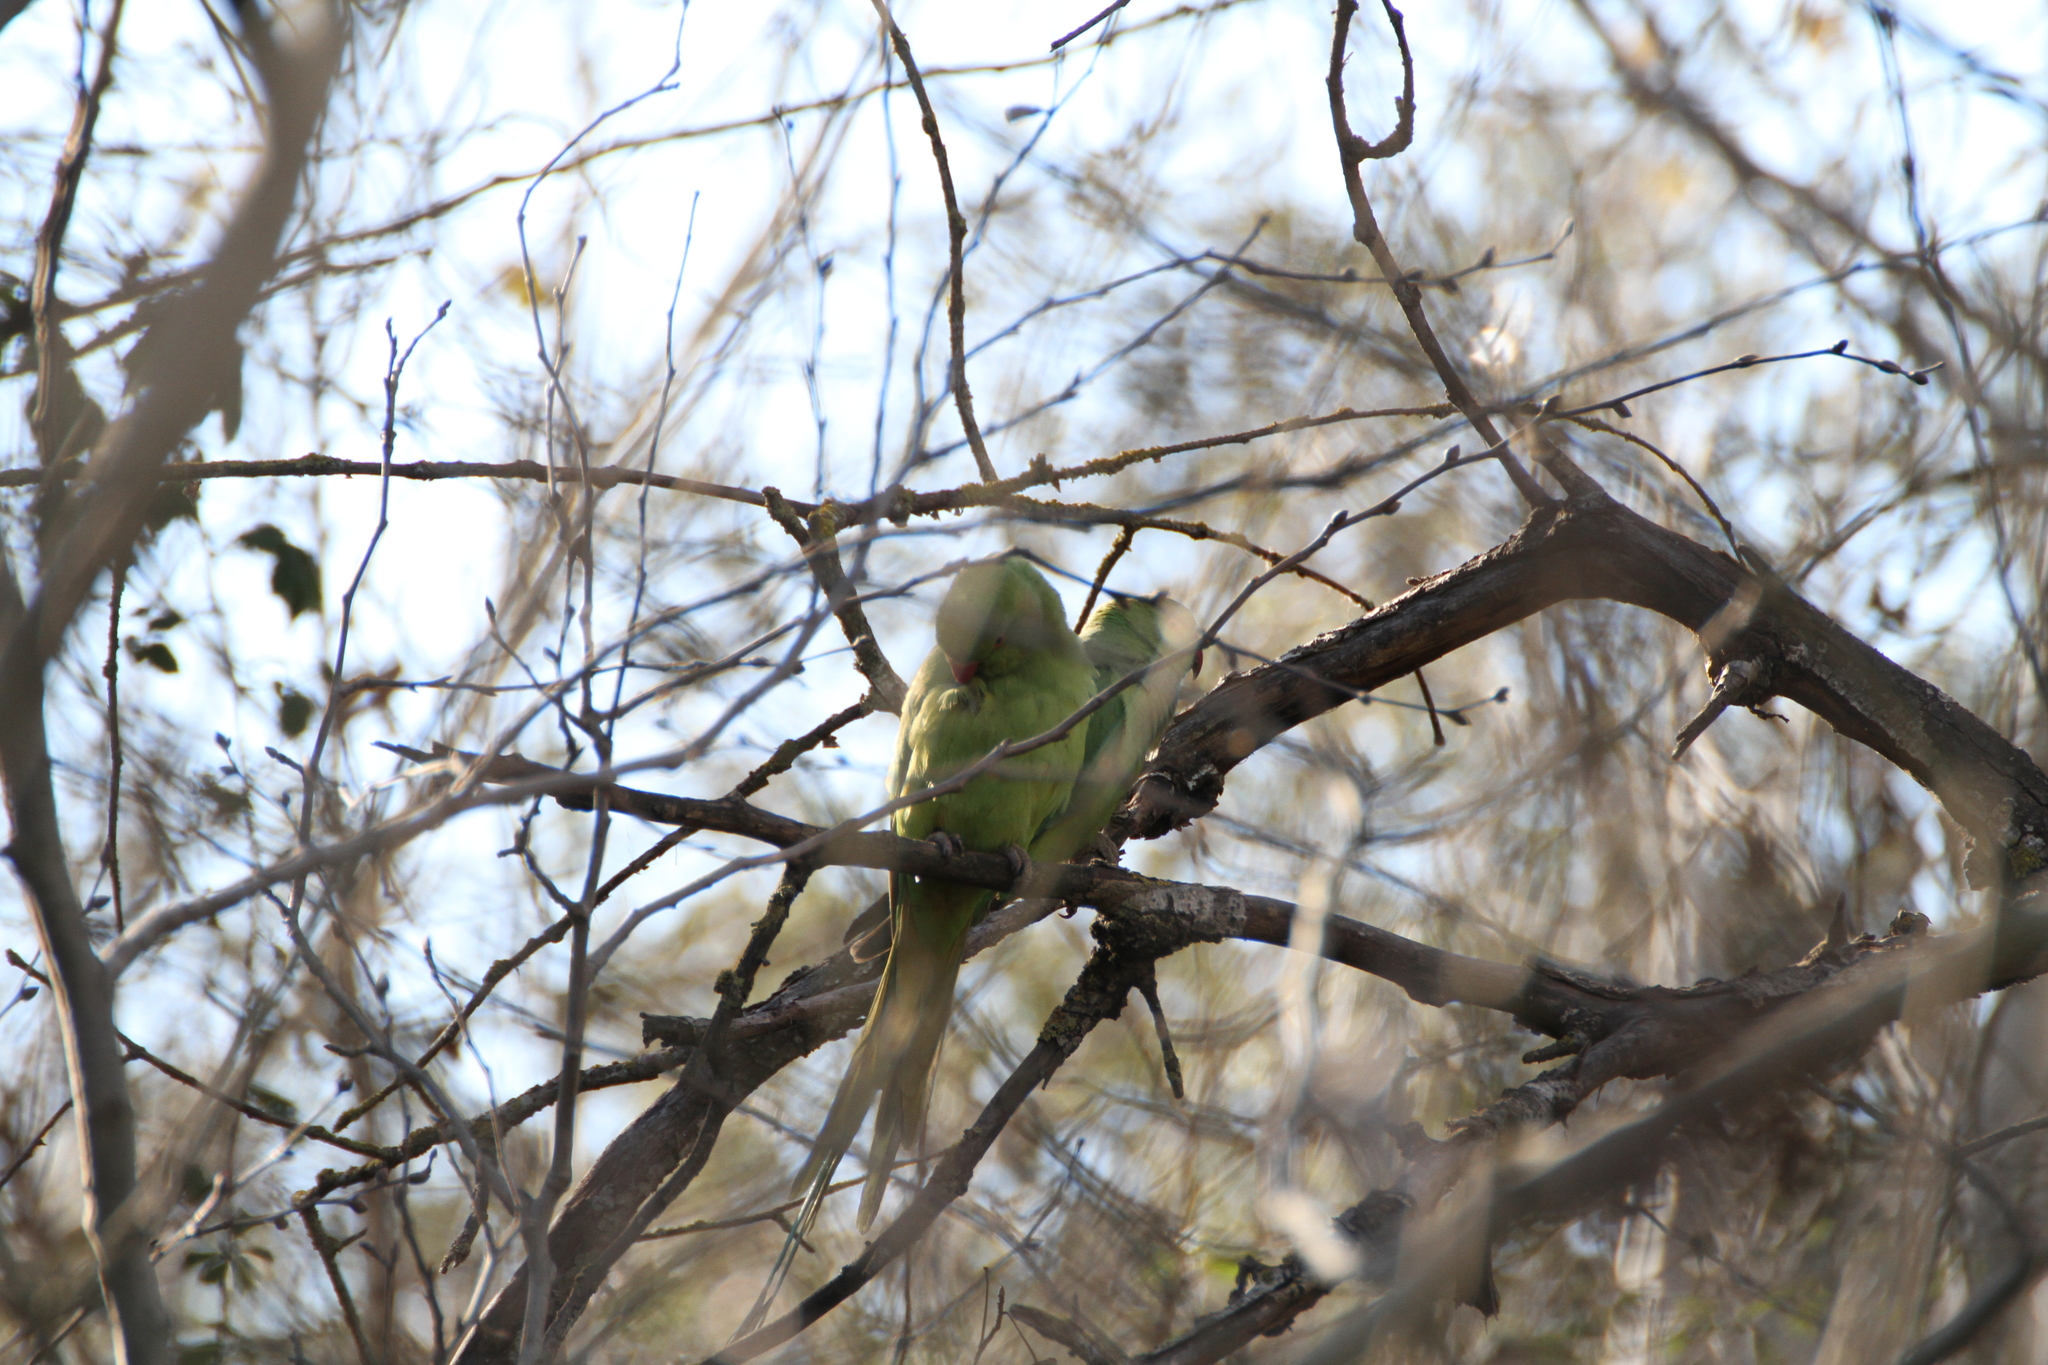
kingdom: Animalia
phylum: Chordata
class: Aves
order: Psittaciformes
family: Psittacidae
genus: Psittacula
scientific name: Psittacula krameri
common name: Rose-ringed parakeet
